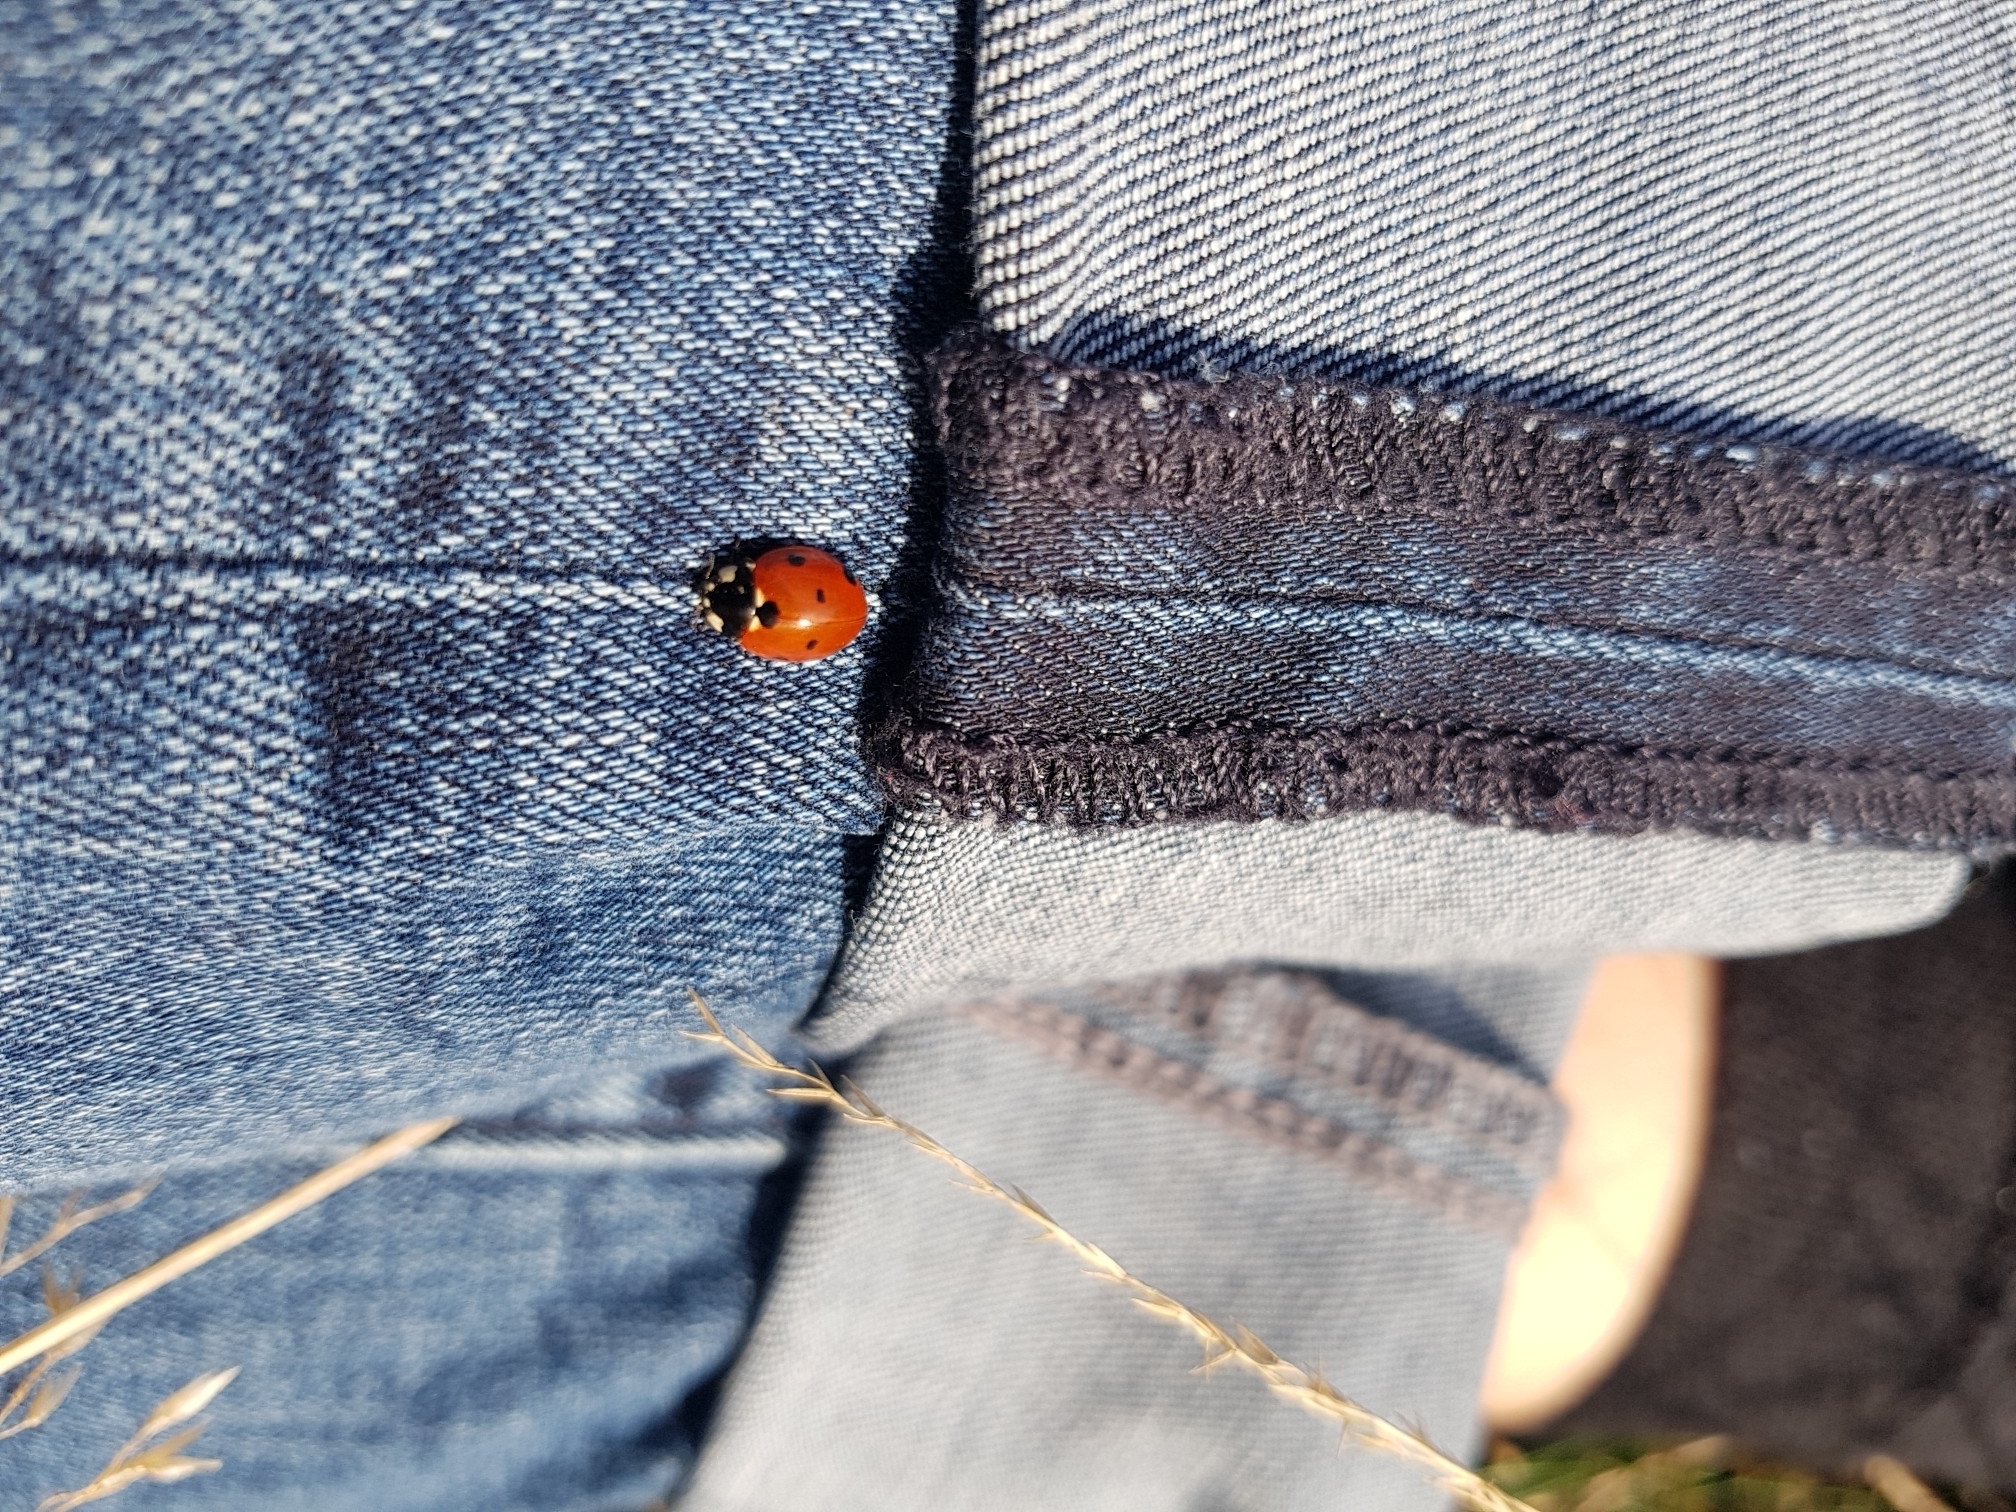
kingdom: Animalia
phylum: Arthropoda
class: Insecta
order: Coleoptera
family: Coccinellidae
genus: Coccinella
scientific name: Coccinella septempunctata
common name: Sevenspotted lady beetle
